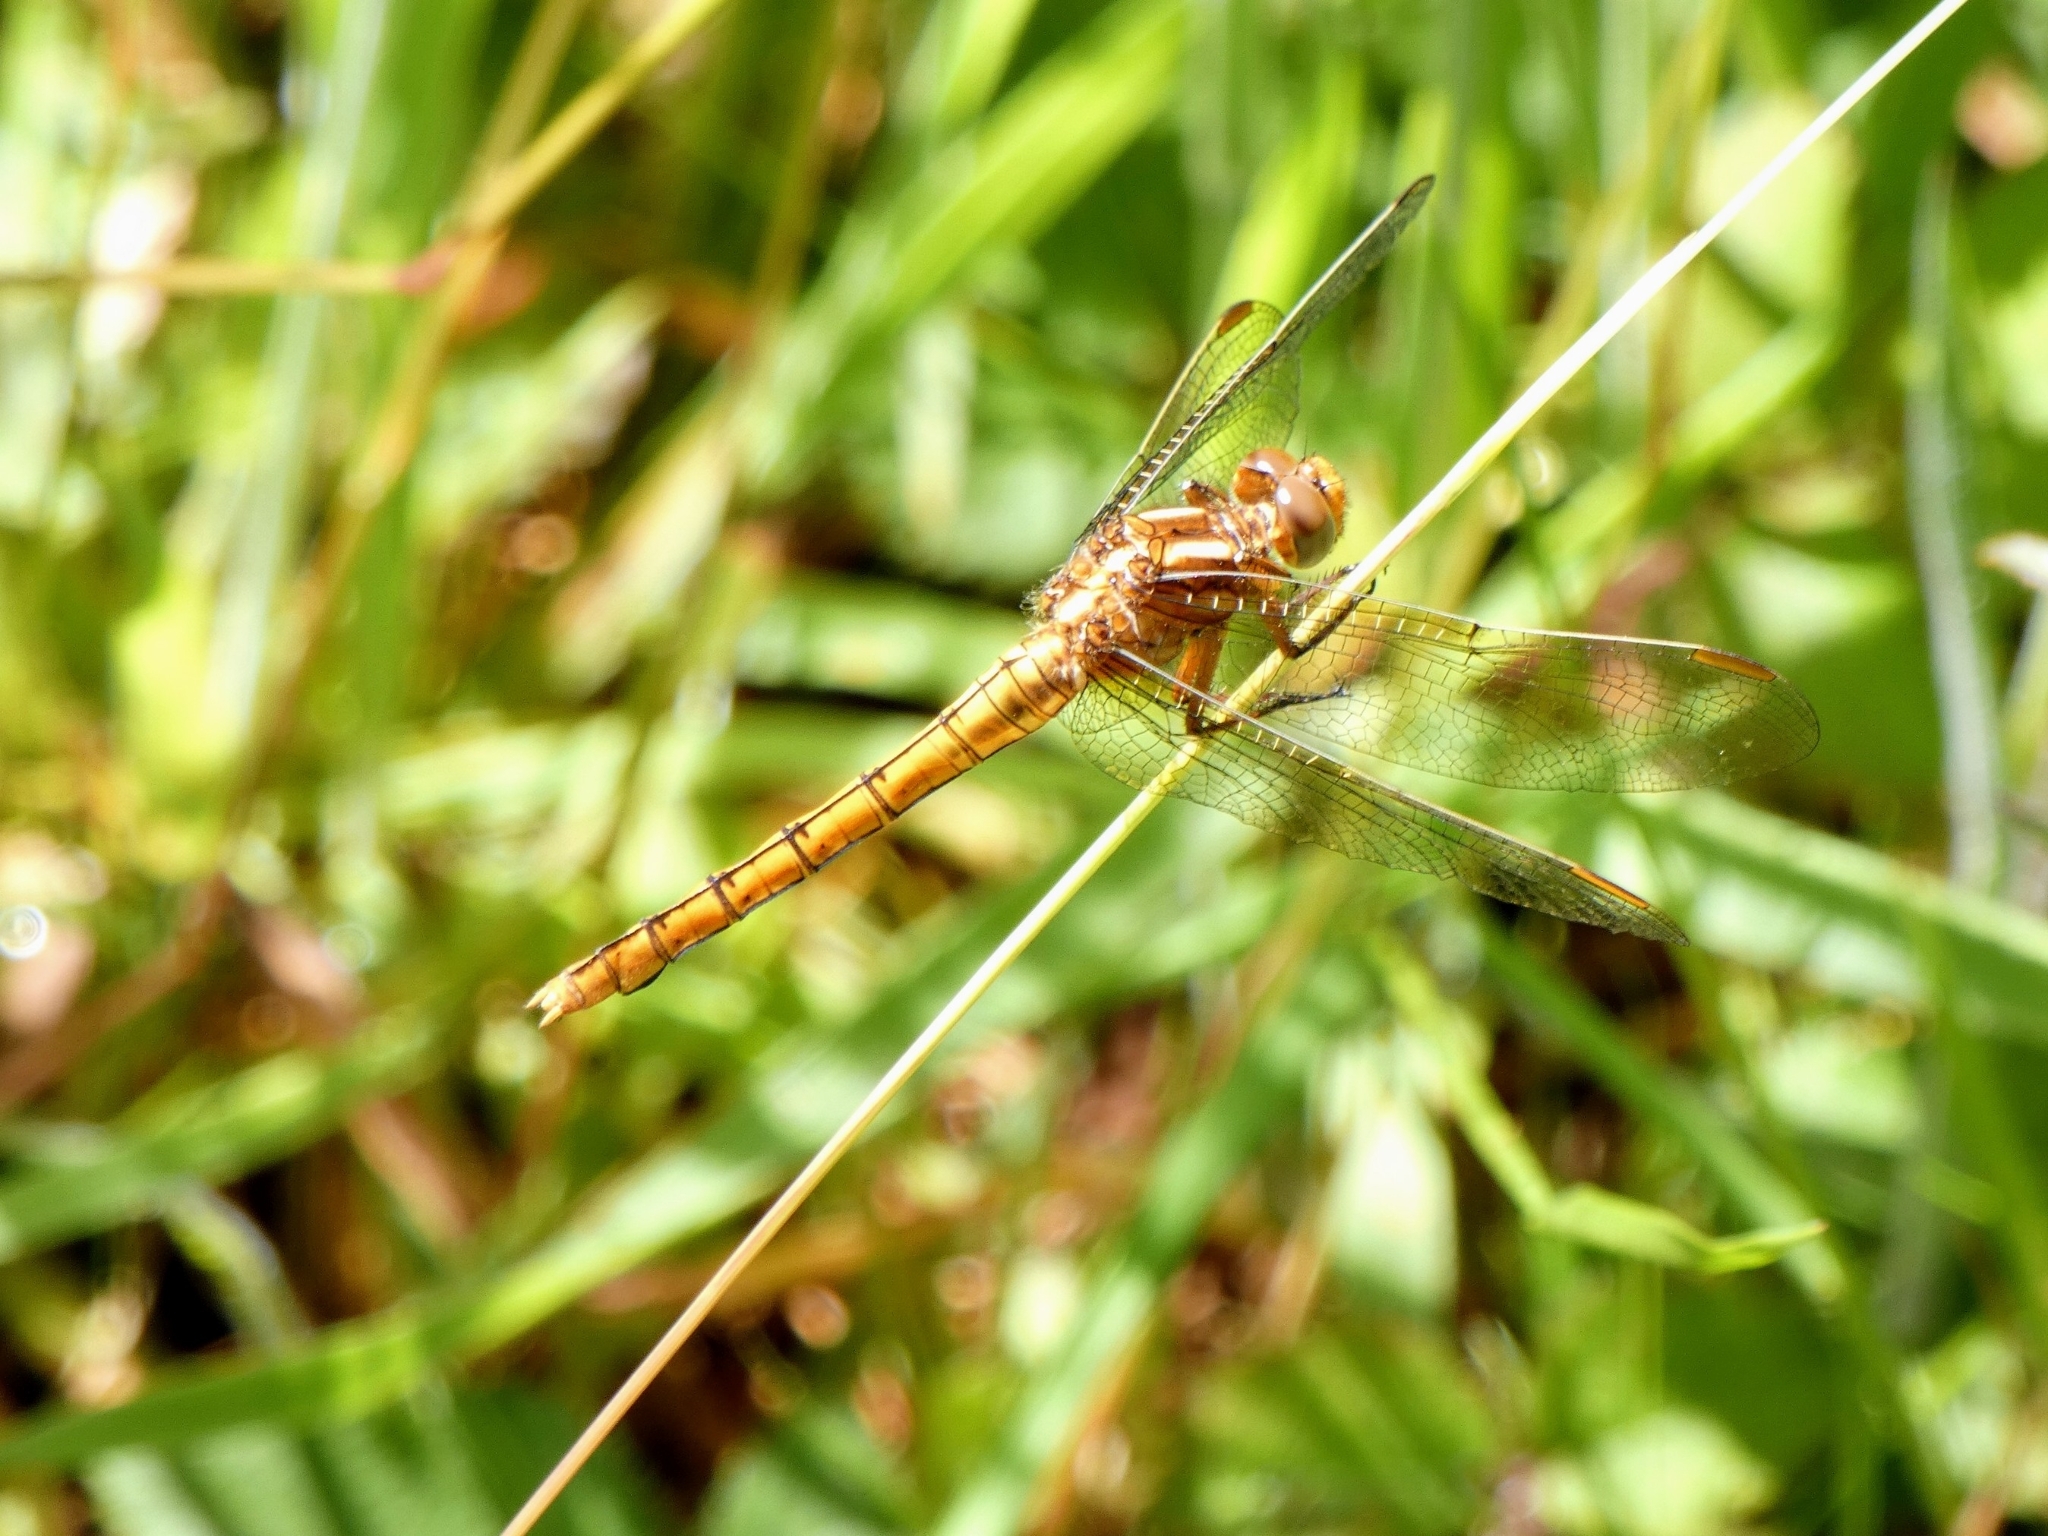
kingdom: Animalia
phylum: Arthropoda
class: Insecta
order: Odonata
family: Libellulidae
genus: Orthetrum
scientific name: Orthetrum coerulescens
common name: Keeled skimmer
